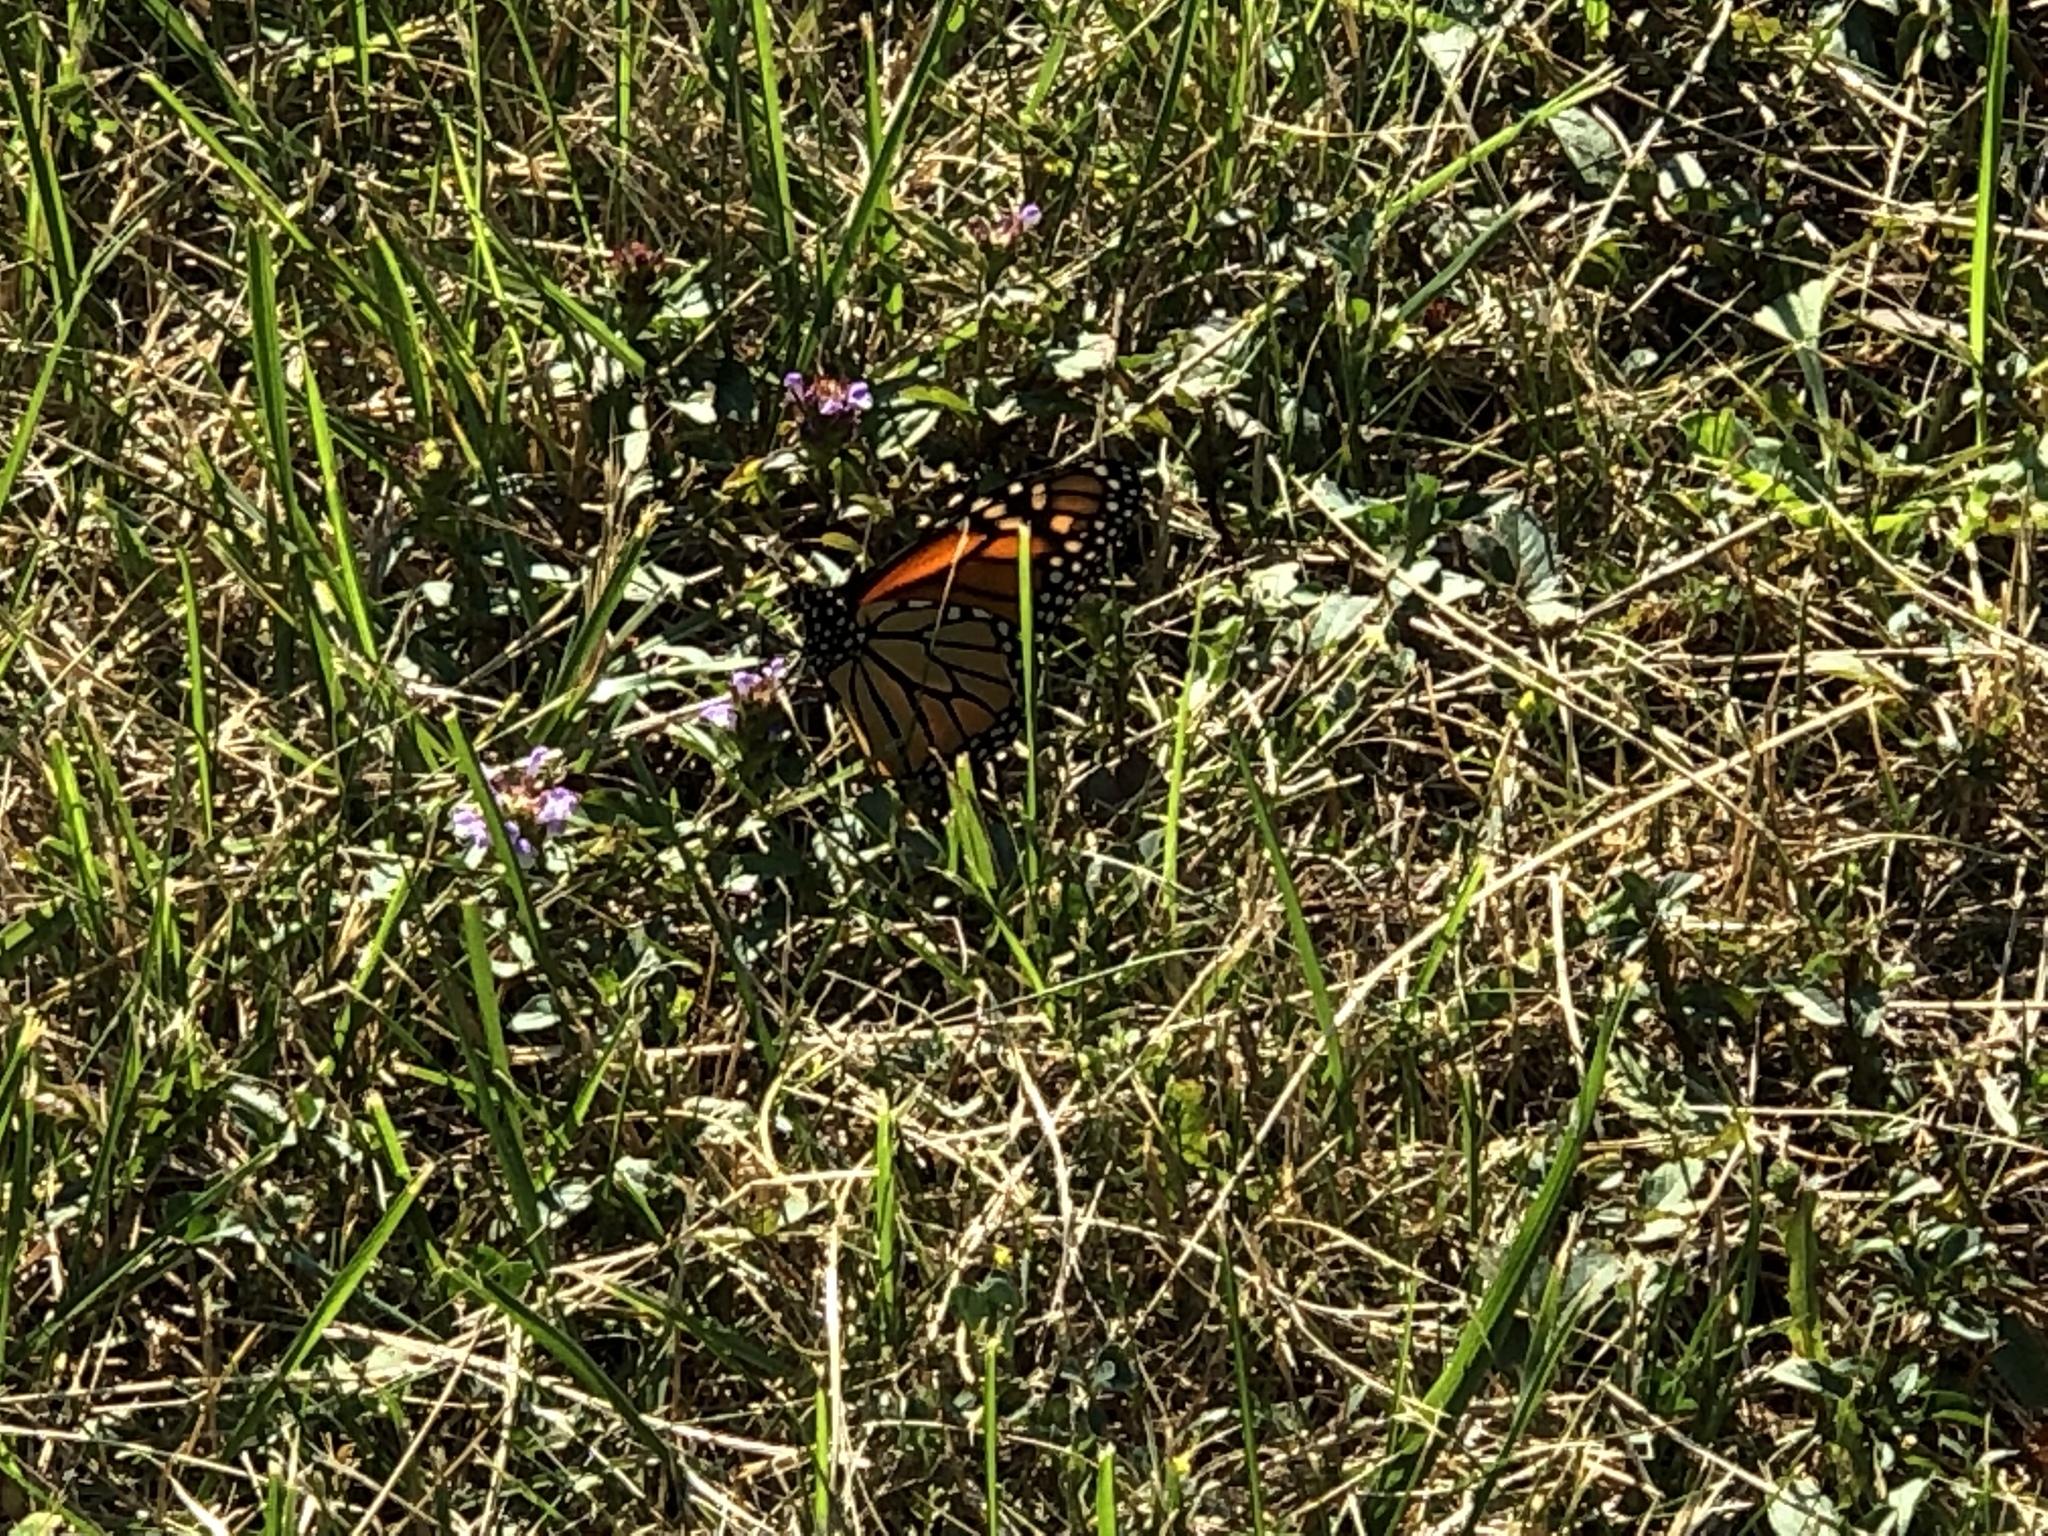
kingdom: Animalia
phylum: Arthropoda
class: Insecta
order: Lepidoptera
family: Nymphalidae
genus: Danaus
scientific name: Danaus plexippus
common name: Monarch
